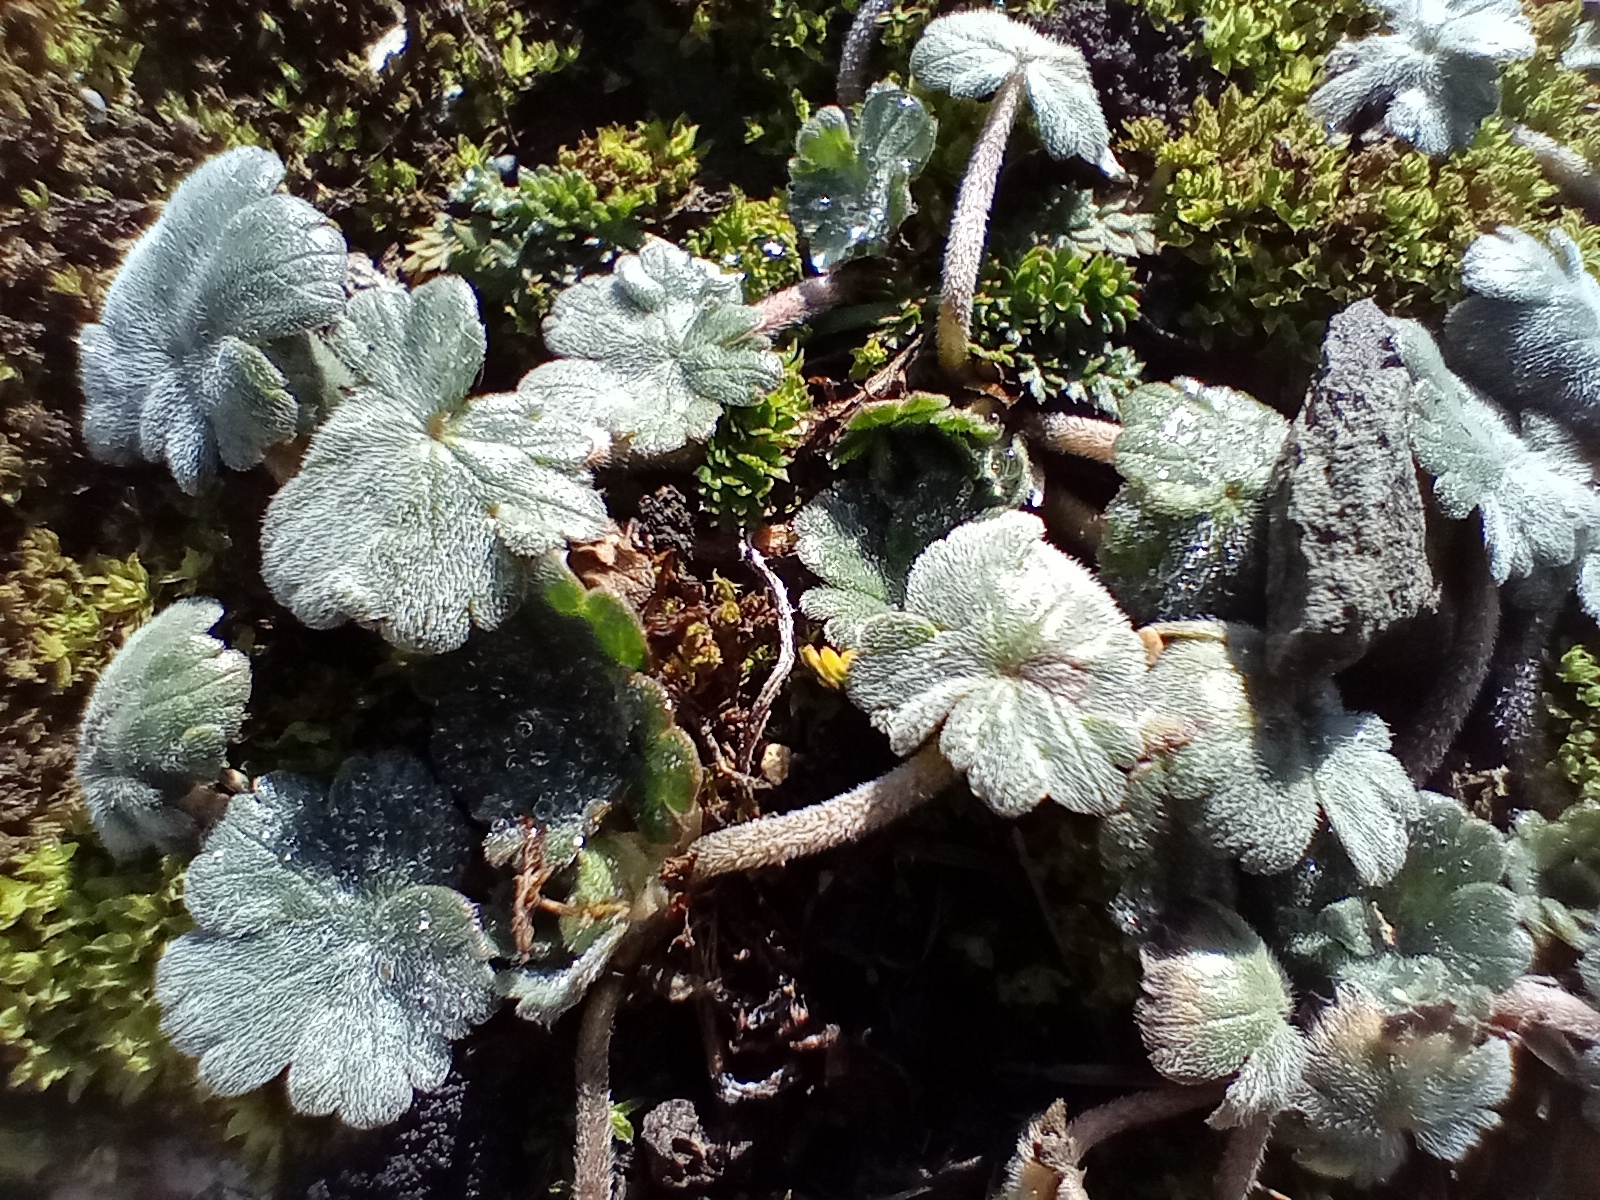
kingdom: Plantae
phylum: Tracheophyta
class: Magnoliopsida
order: Geraniales
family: Geraniaceae
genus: Geranium
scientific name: Geranium brevicaule
